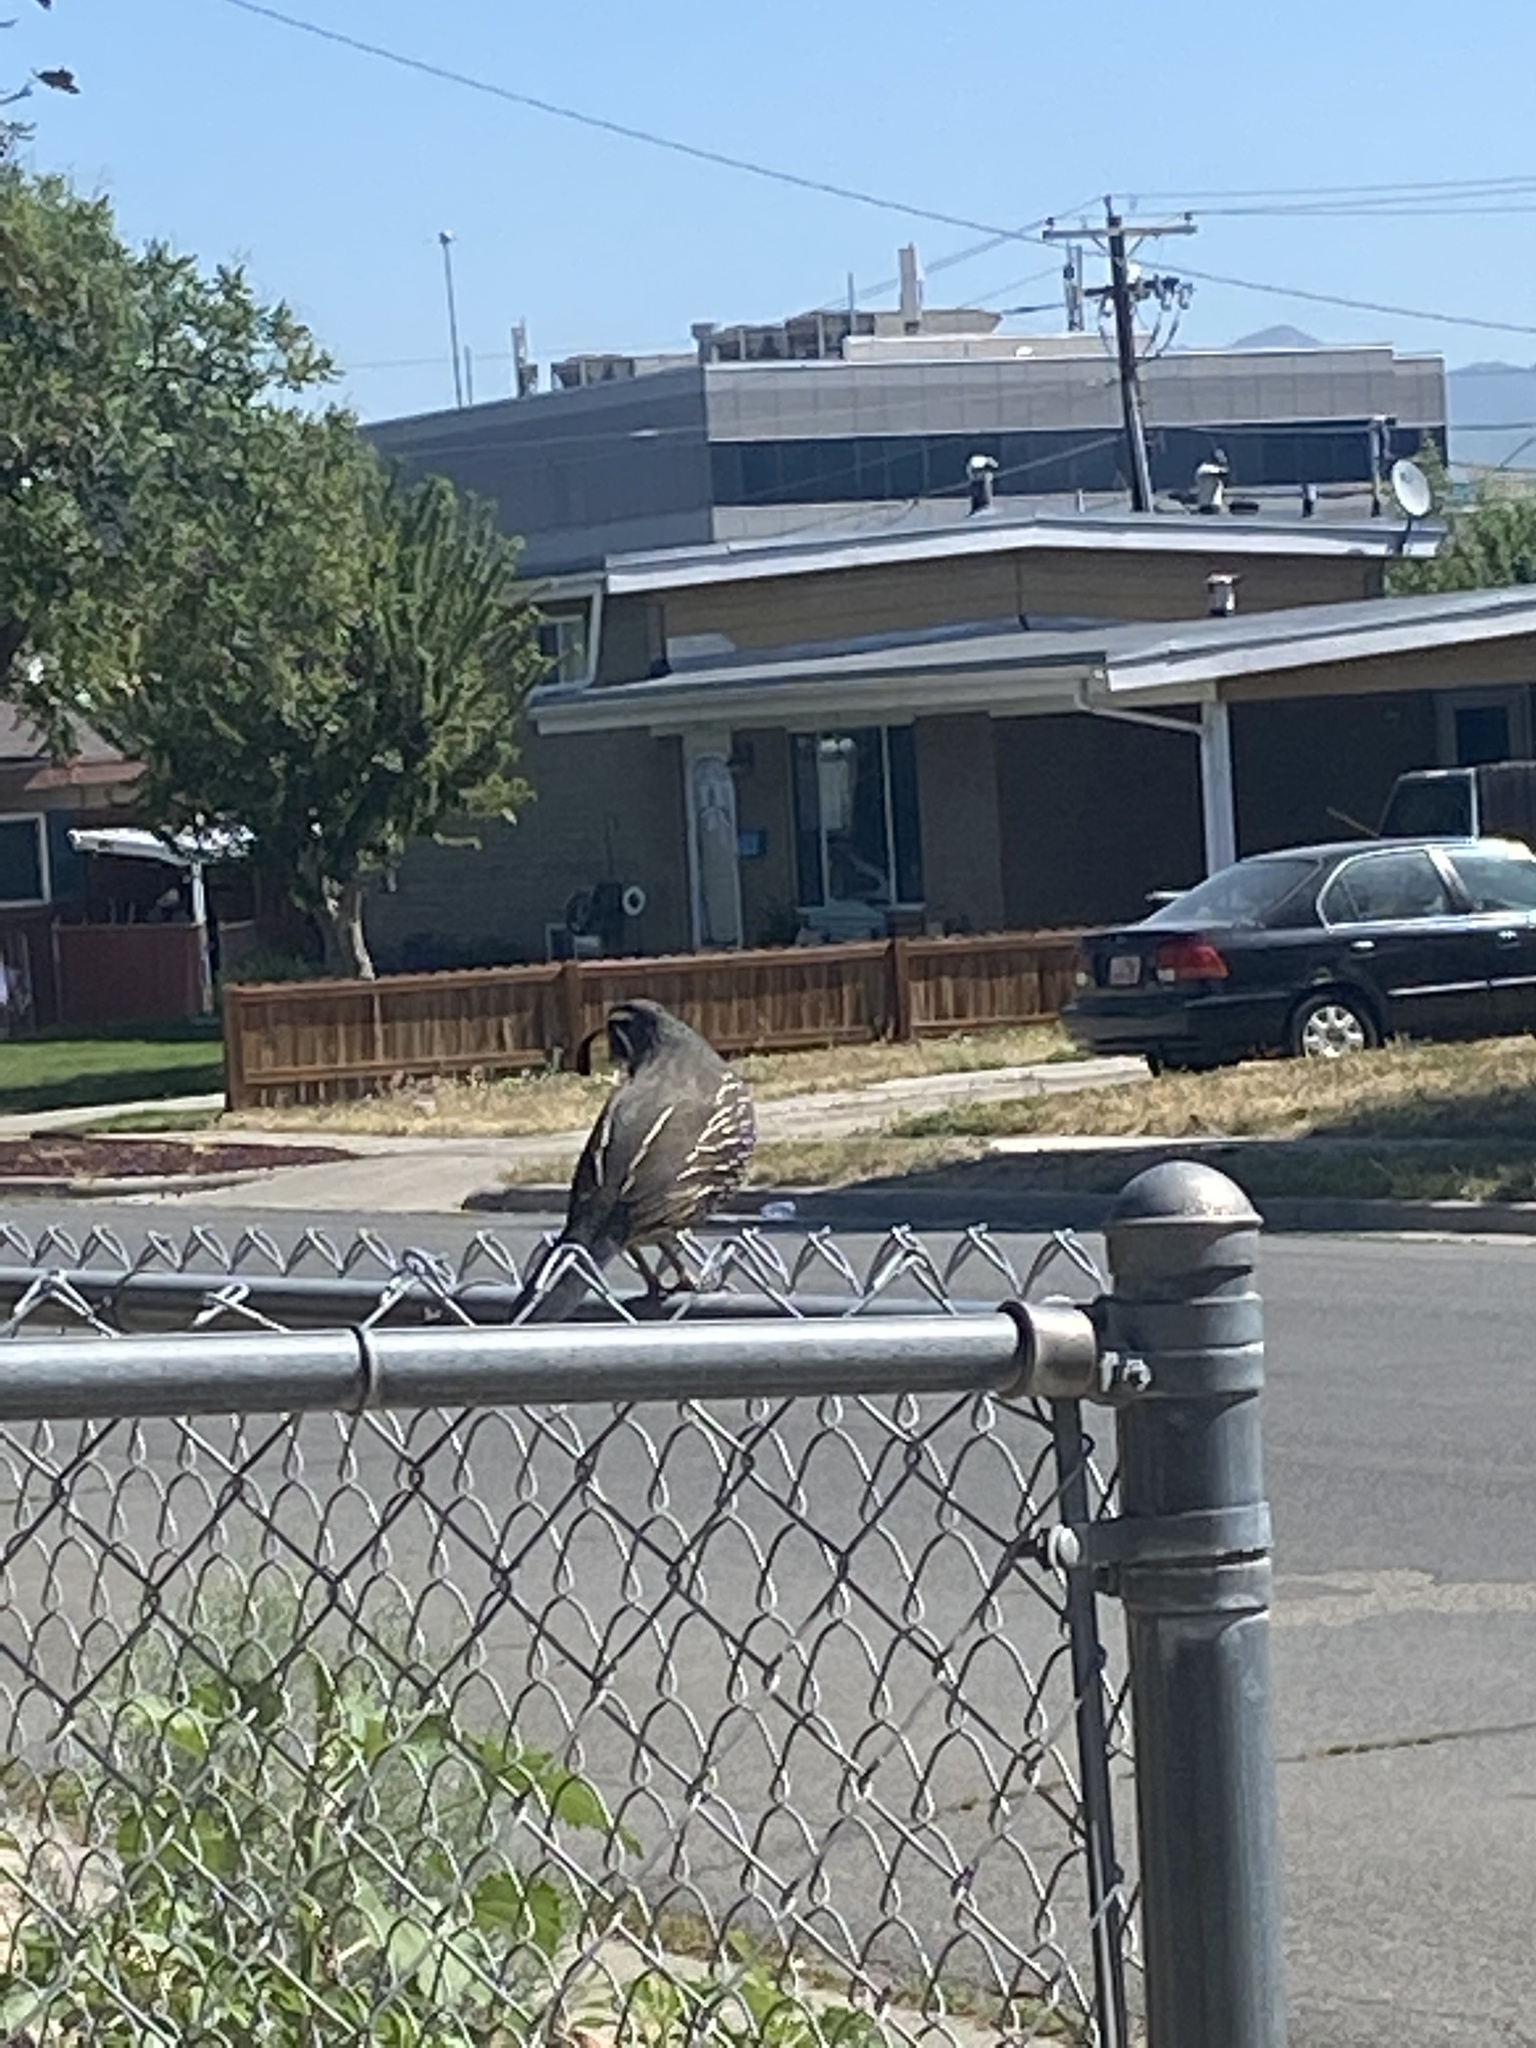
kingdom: Animalia
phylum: Chordata
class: Aves
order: Galliformes
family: Odontophoridae
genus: Callipepla
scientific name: Callipepla californica
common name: California quail
